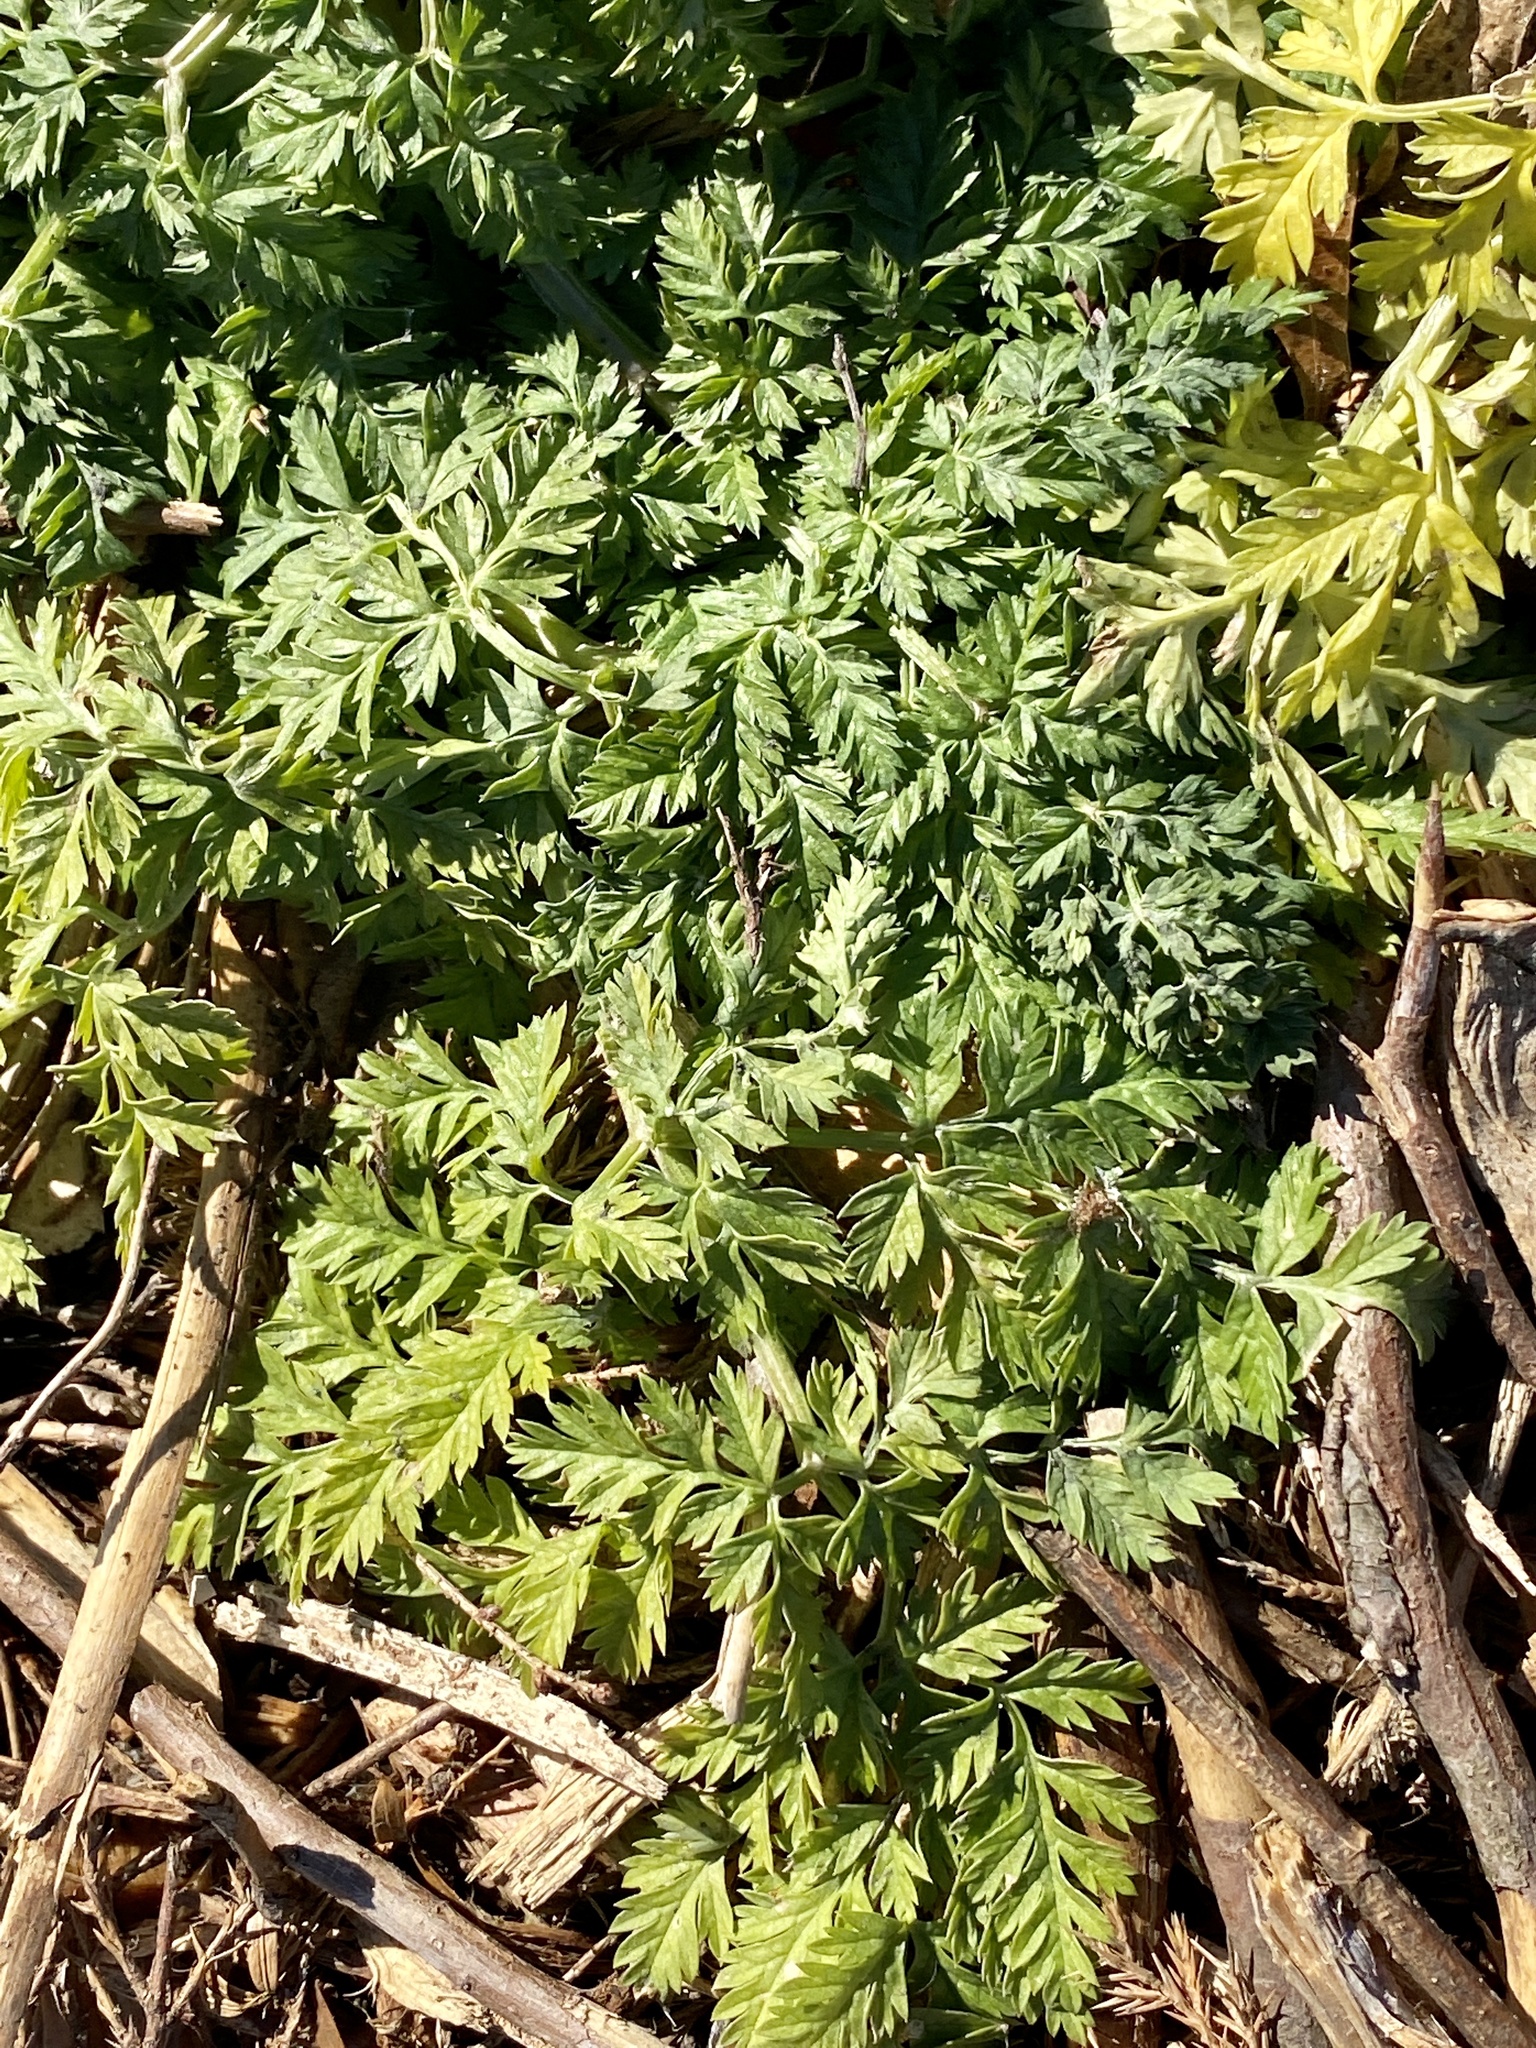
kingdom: Plantae
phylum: Tracheophyta
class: Magnoliopsida
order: Apiales
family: Apiaceae
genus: Conium
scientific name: Conium maculatum
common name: Hemlock
